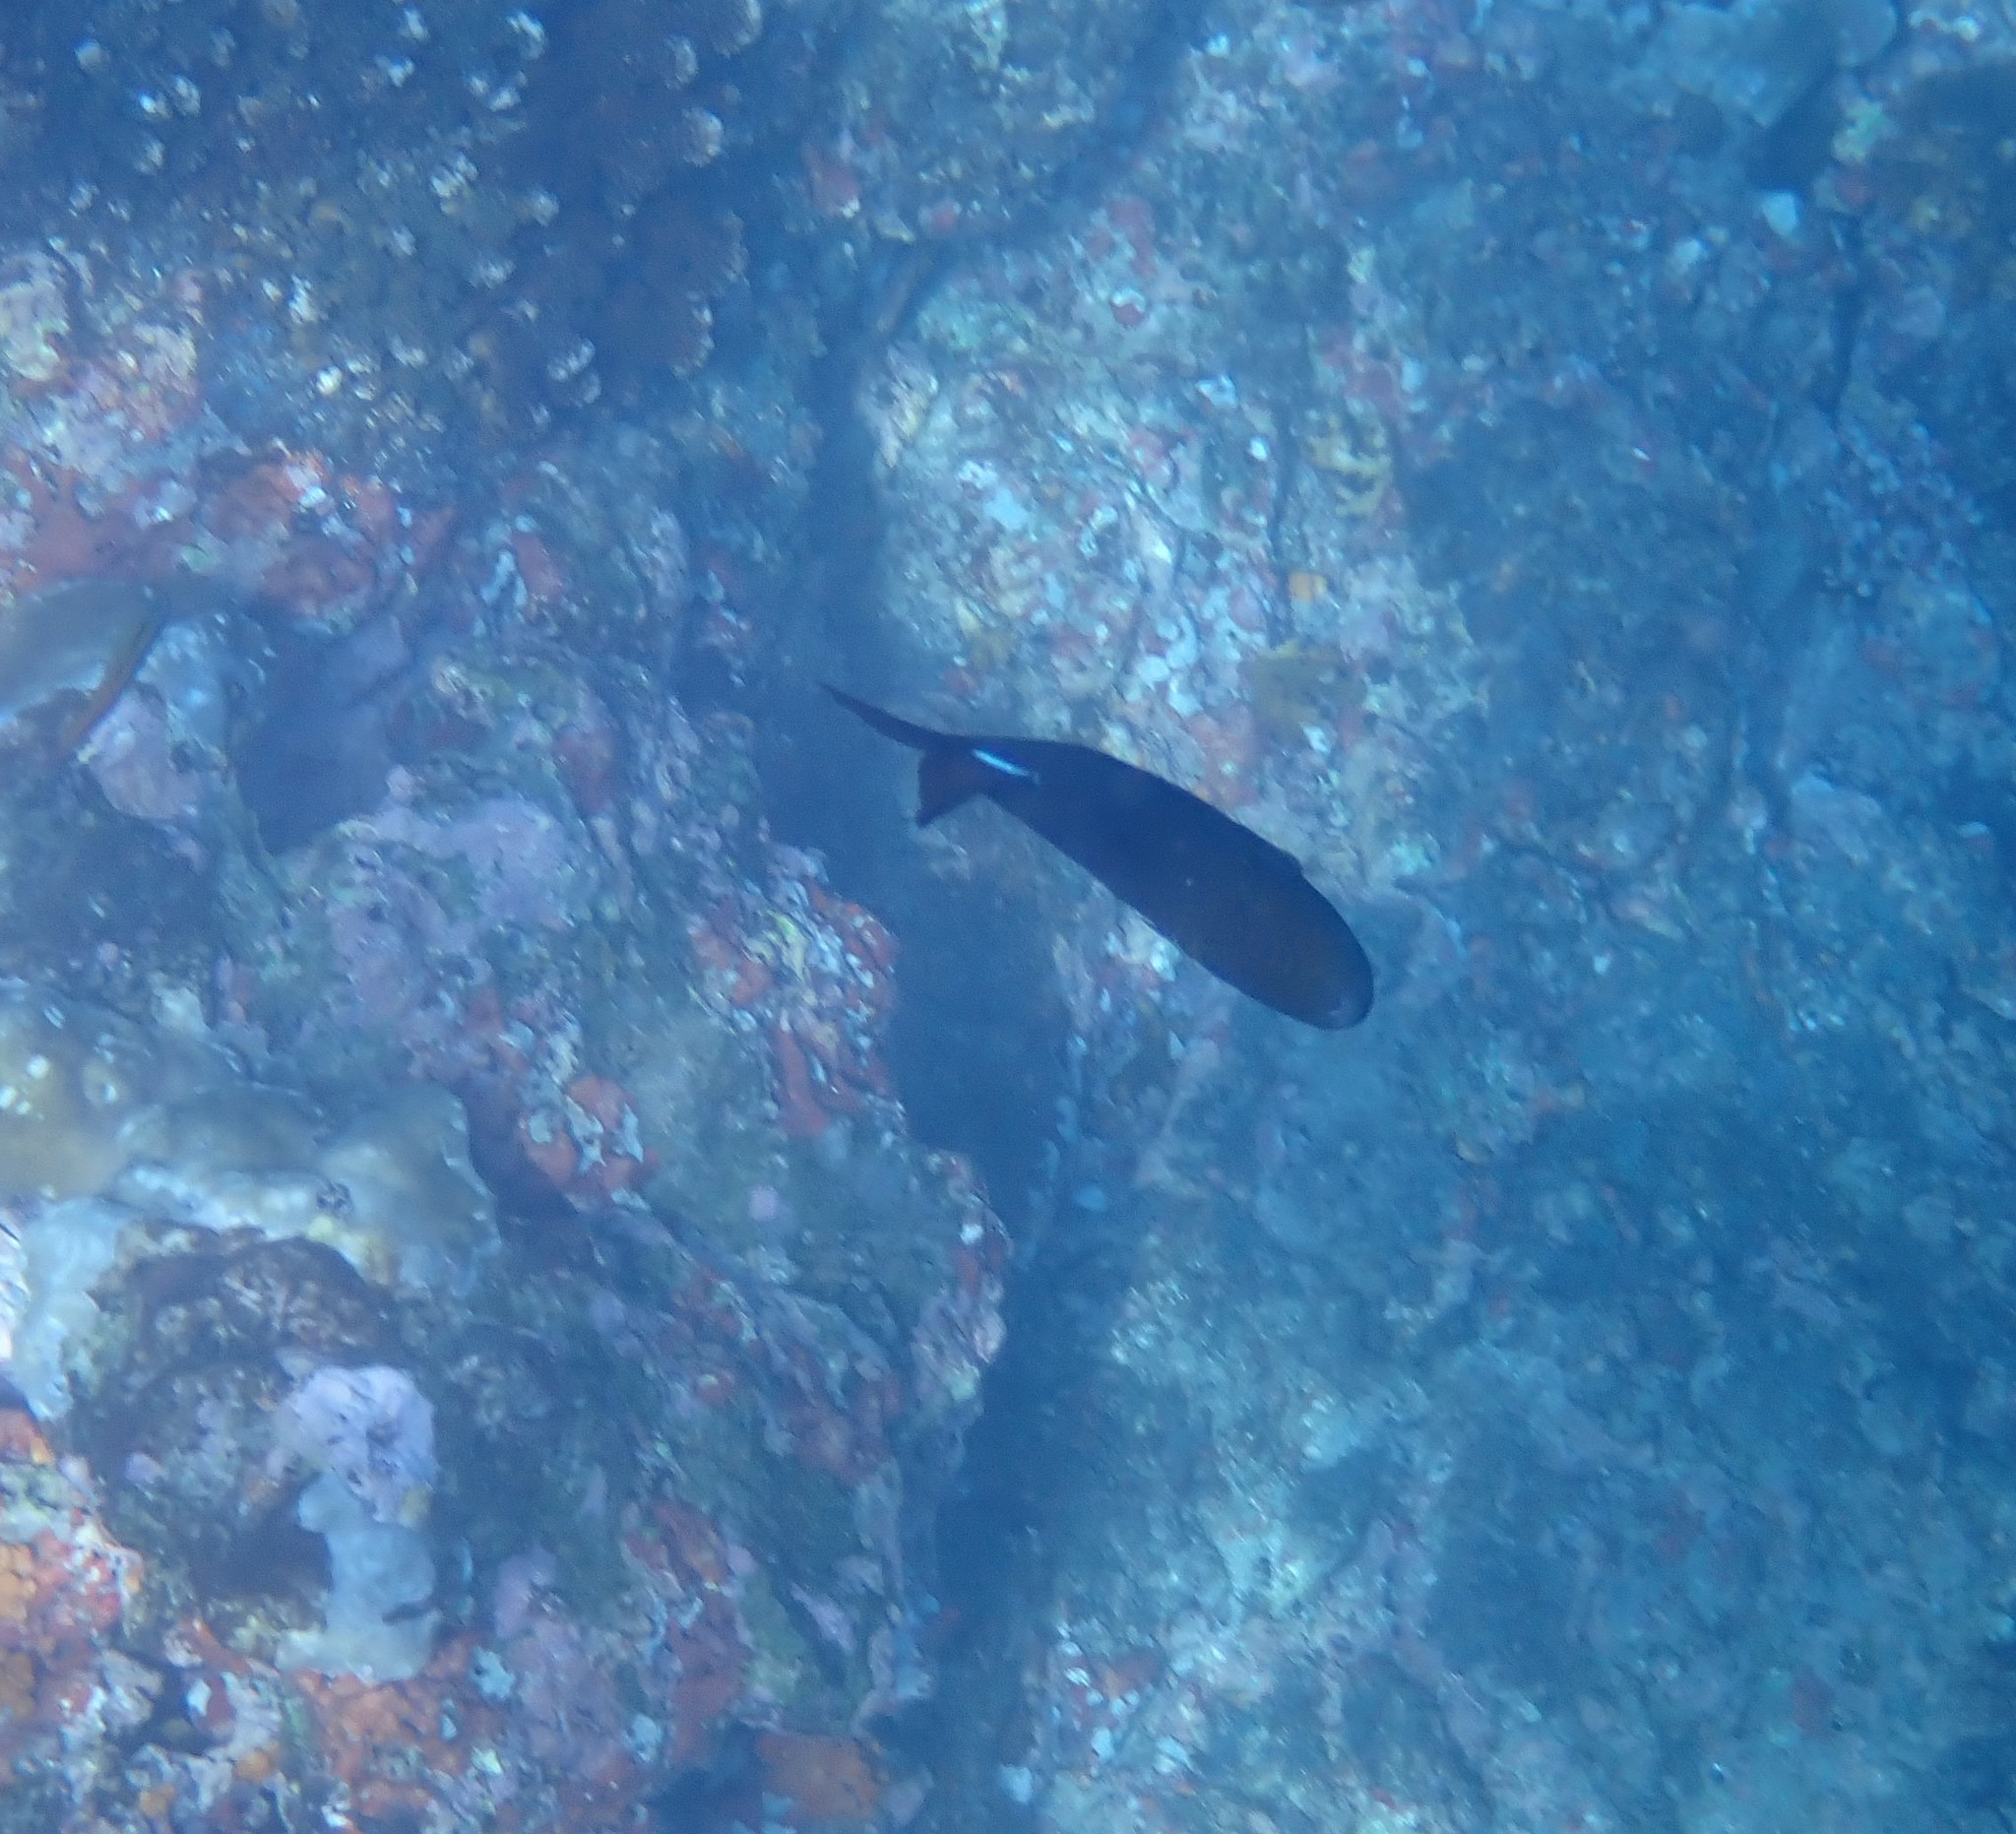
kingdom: Animalia
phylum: Chordata
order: Tetraodontiformes
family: Balistidae
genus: Melichthys
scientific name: Melichthys niger
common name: Black durgon
